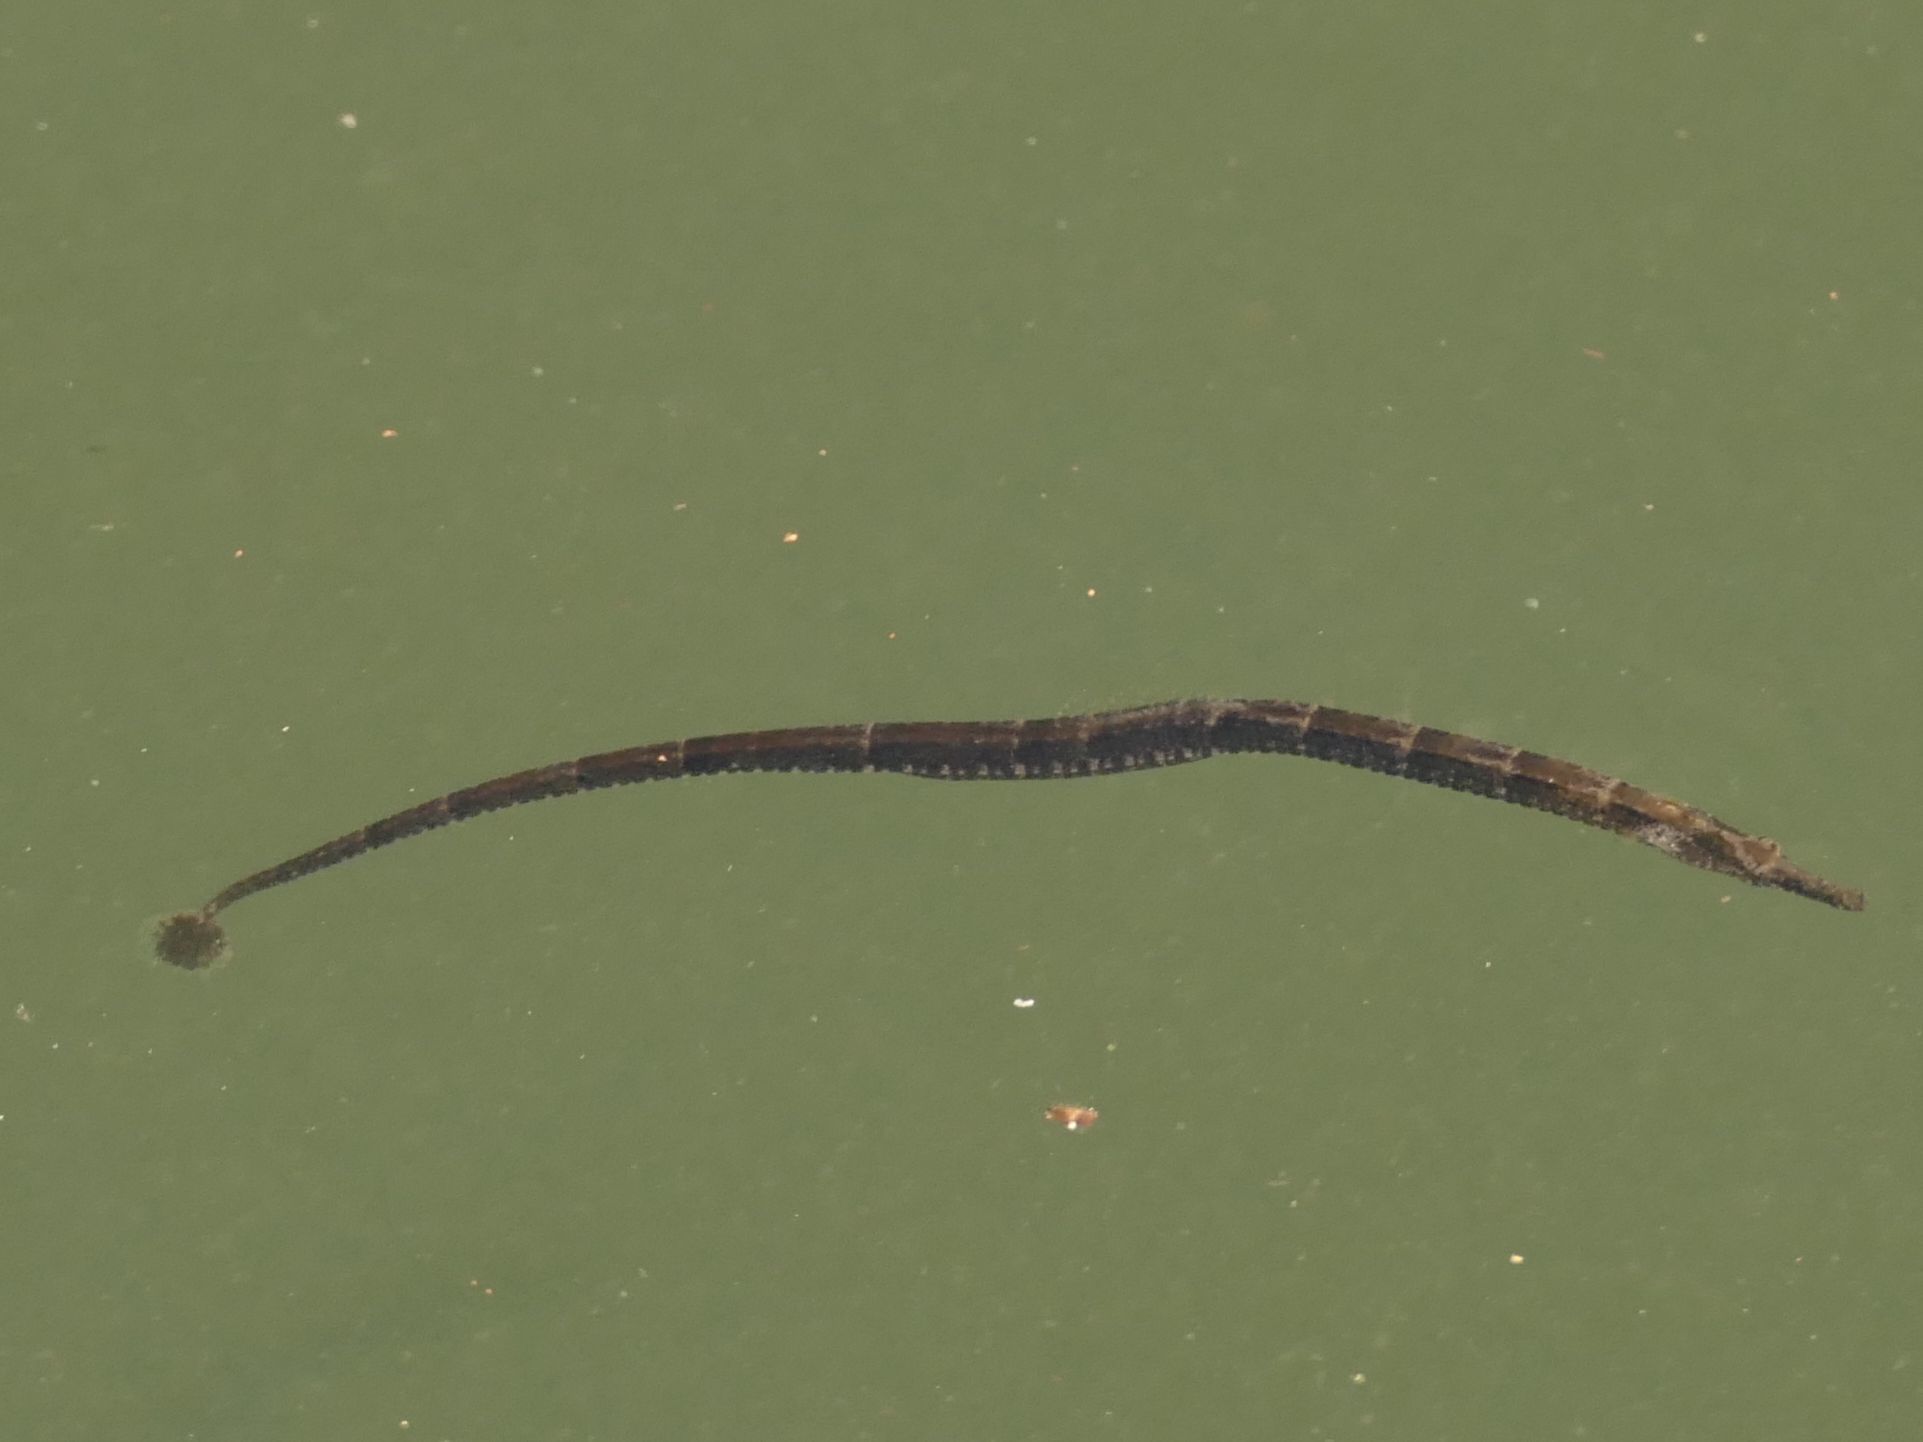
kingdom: Animalia
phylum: Chordata
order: Syngnathiformes
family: Syngnathidae
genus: Hippichthys
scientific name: Hippichthys spicifer
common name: Banded freshwater pipefish
